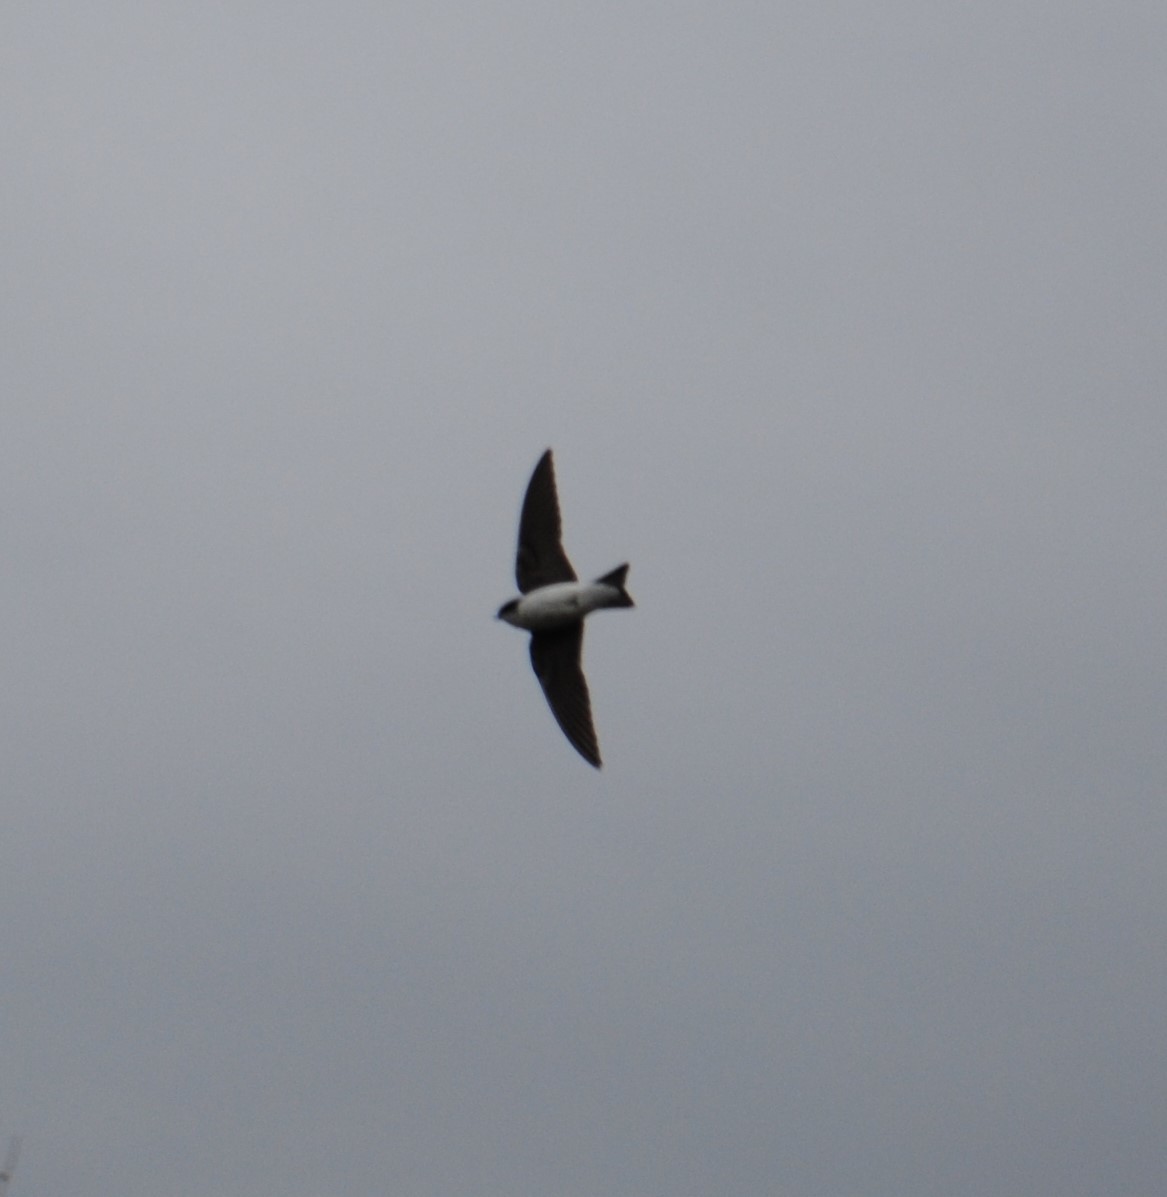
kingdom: Animalia
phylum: Chordata
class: Aves
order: Passeriformes
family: Hirundinidae
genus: Tachycineta
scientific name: Tachycineta bicolor
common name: Tree swallow
